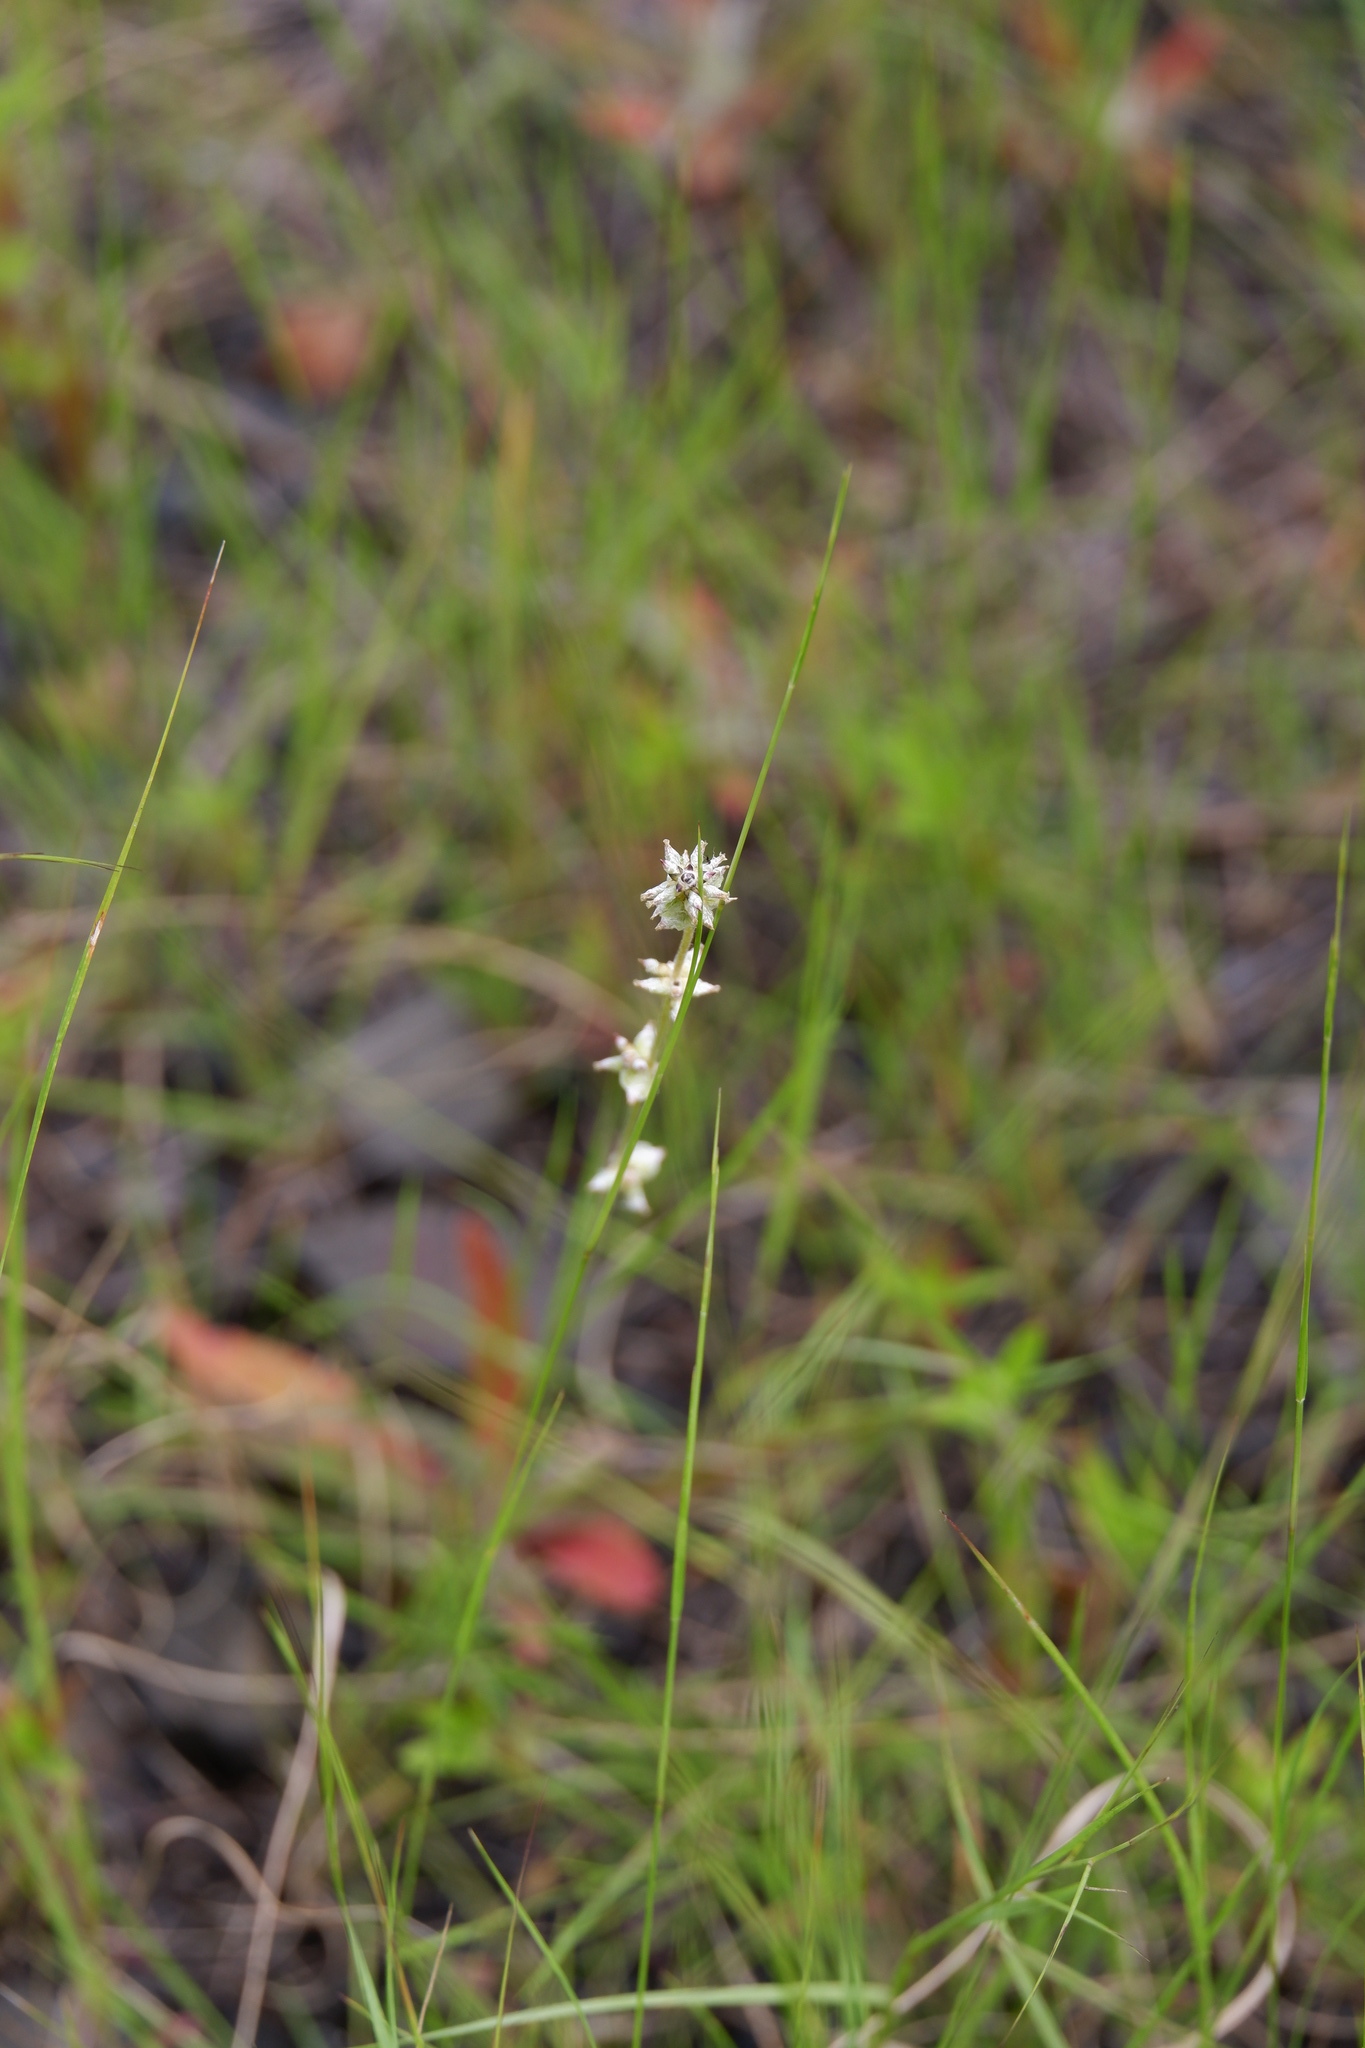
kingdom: Plantae
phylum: Tracheophyta
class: Magnoliopsida
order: Caryophyllales
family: Amaranthaceae
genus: Froelichia
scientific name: Froelichia gracilis
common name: Slender cottonweed
